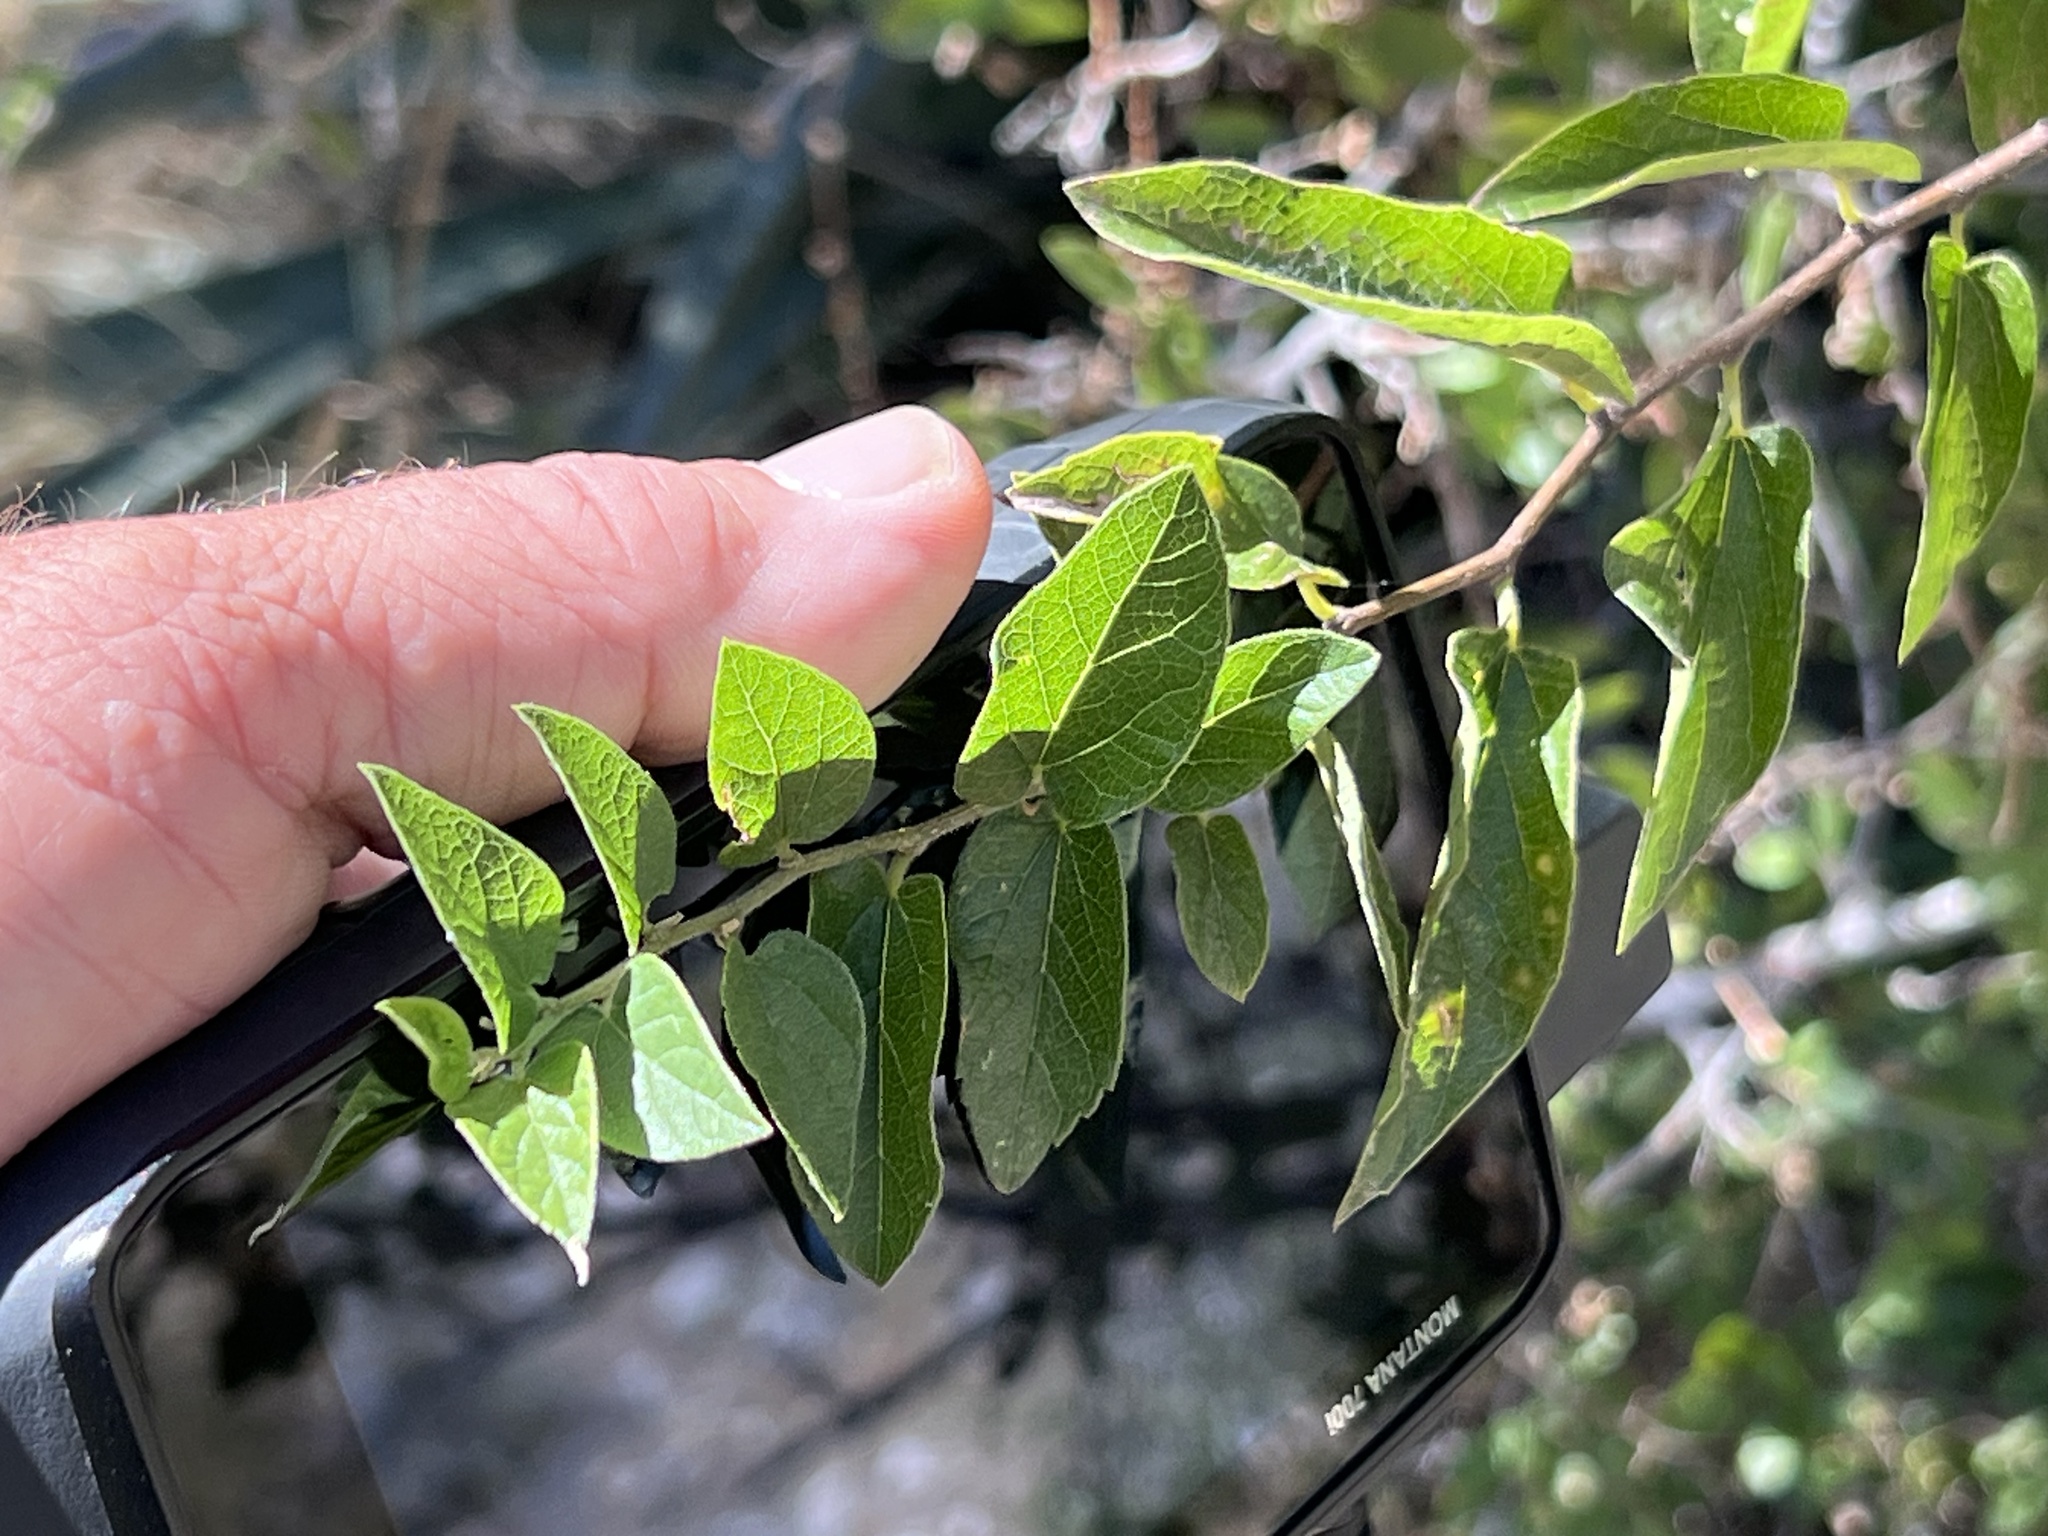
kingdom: Plantae
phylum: Tracheophyta
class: Magnoliopsida
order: Rosales
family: Cannabaceae
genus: Celtis
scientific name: Celtis reticulata
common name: Netleaf hackberry
